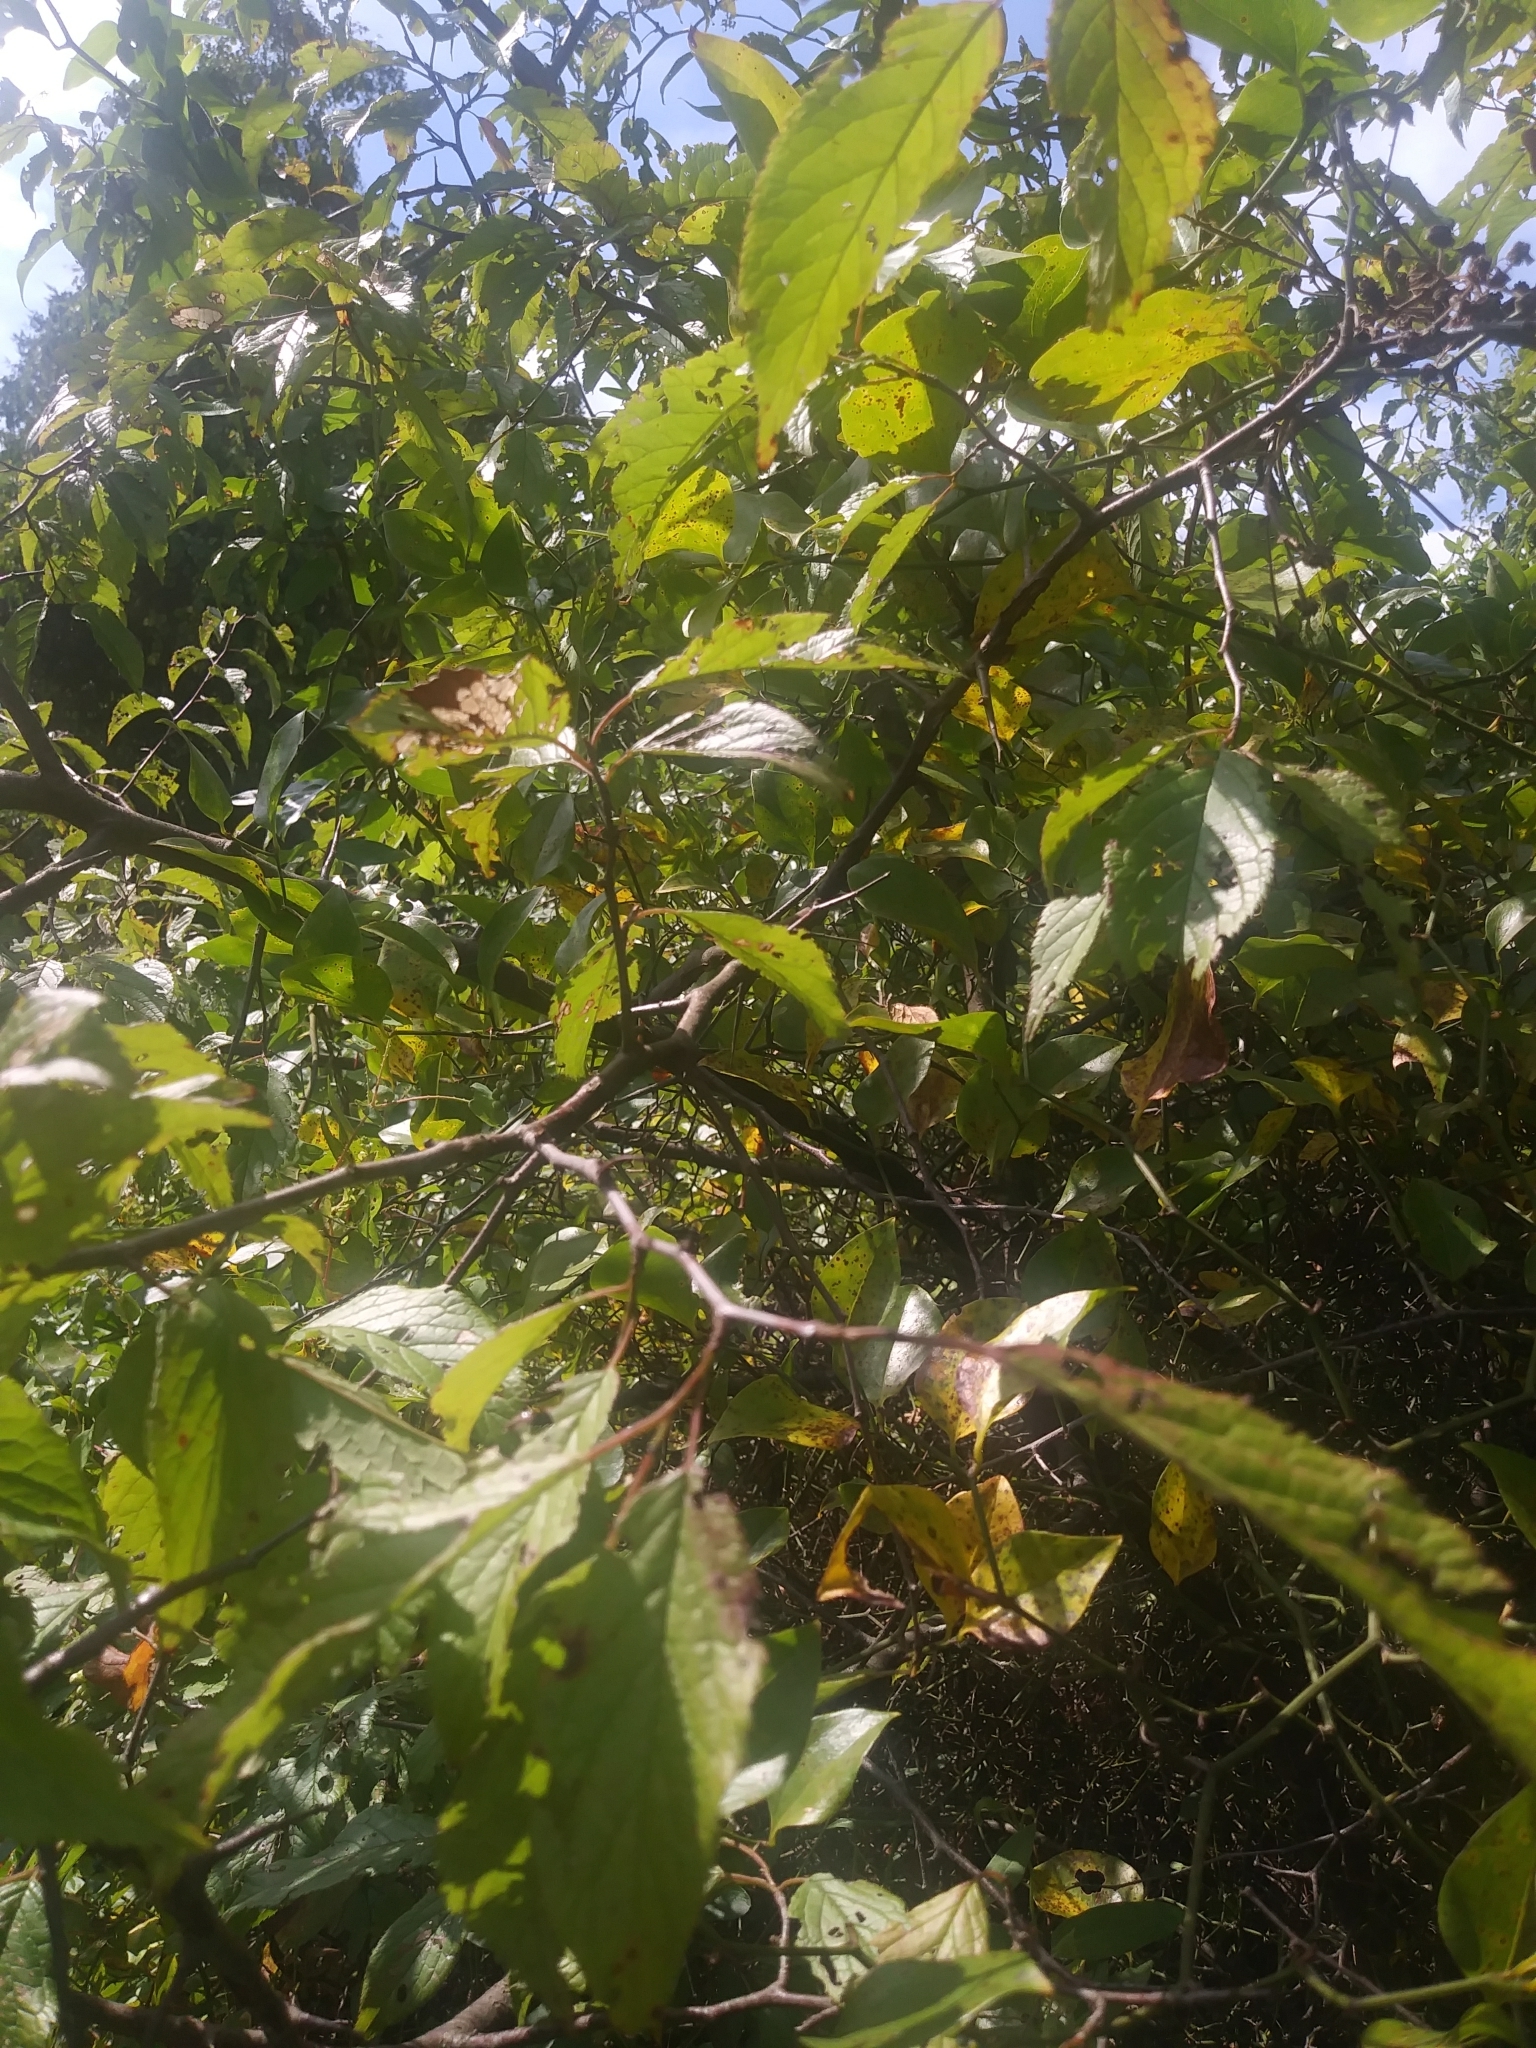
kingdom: Plantae
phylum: Tracheophyta
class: Magnoliopsida
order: Rosales
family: Rosaceae
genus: Prunus
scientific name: Prunus americana
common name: American plum
